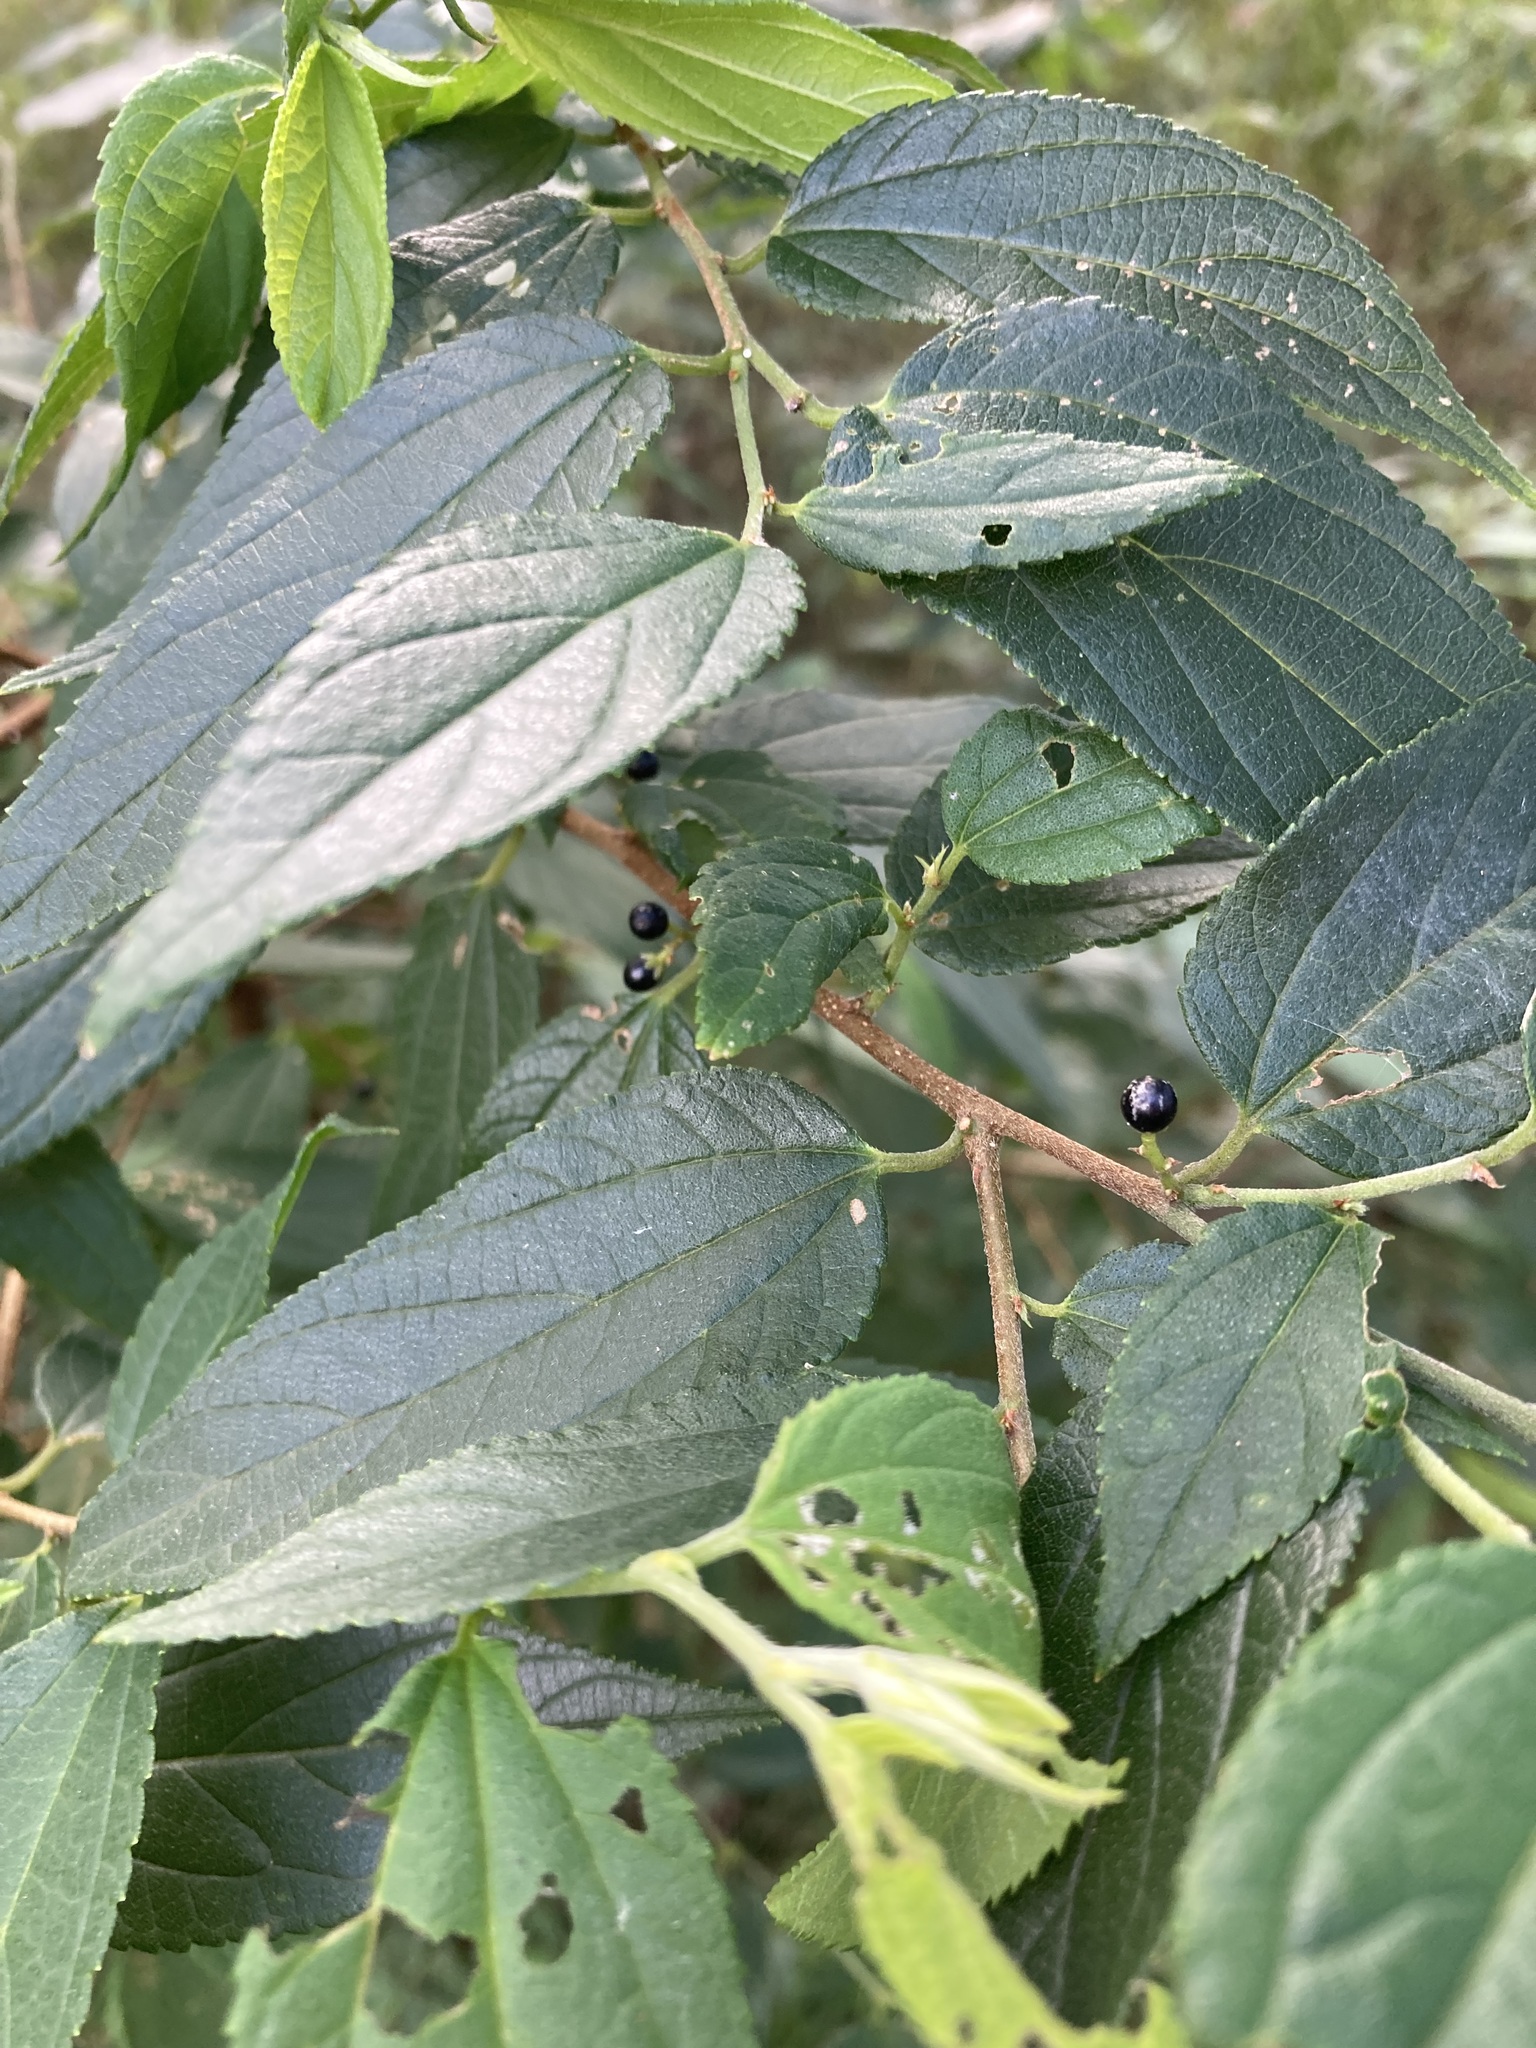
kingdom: Plantae
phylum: Tracheophyta
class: Magnoliopsida
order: Rosales
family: Cannabaceae
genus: Trema
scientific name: Trema tomentosum
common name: Peach-leaf-poisonbush
